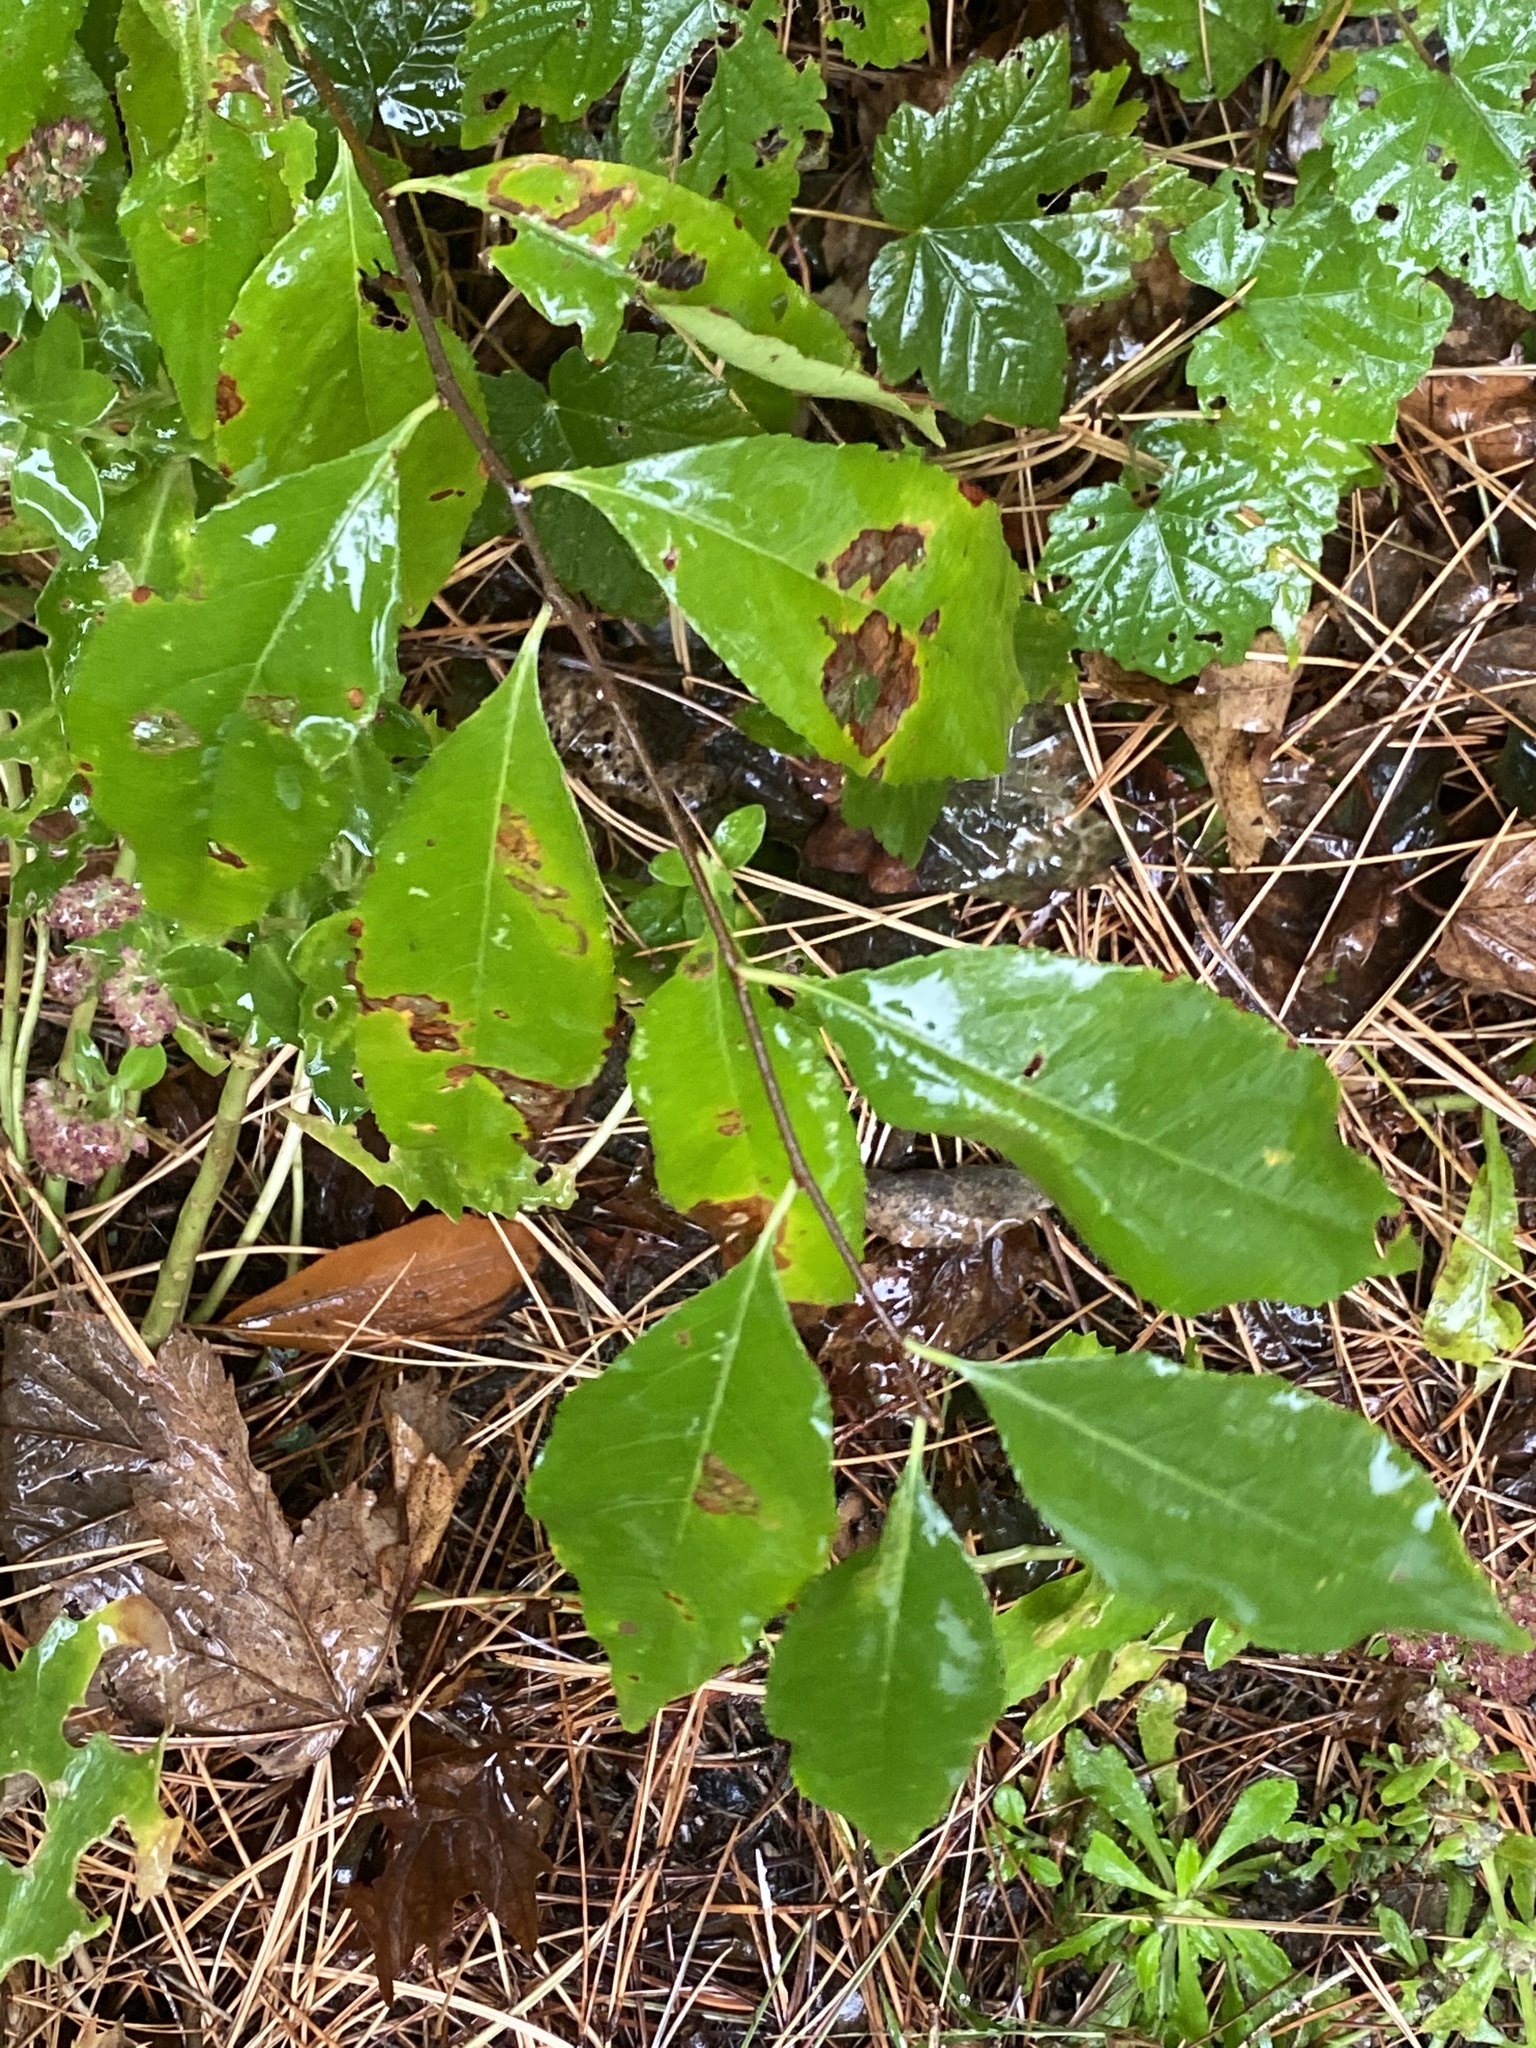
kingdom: Plantae
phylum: Tracheophyta
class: Magnoliopsida
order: Rosales
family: Rosaceae
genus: Prunus
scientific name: Prunus serotina
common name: Black cherry
